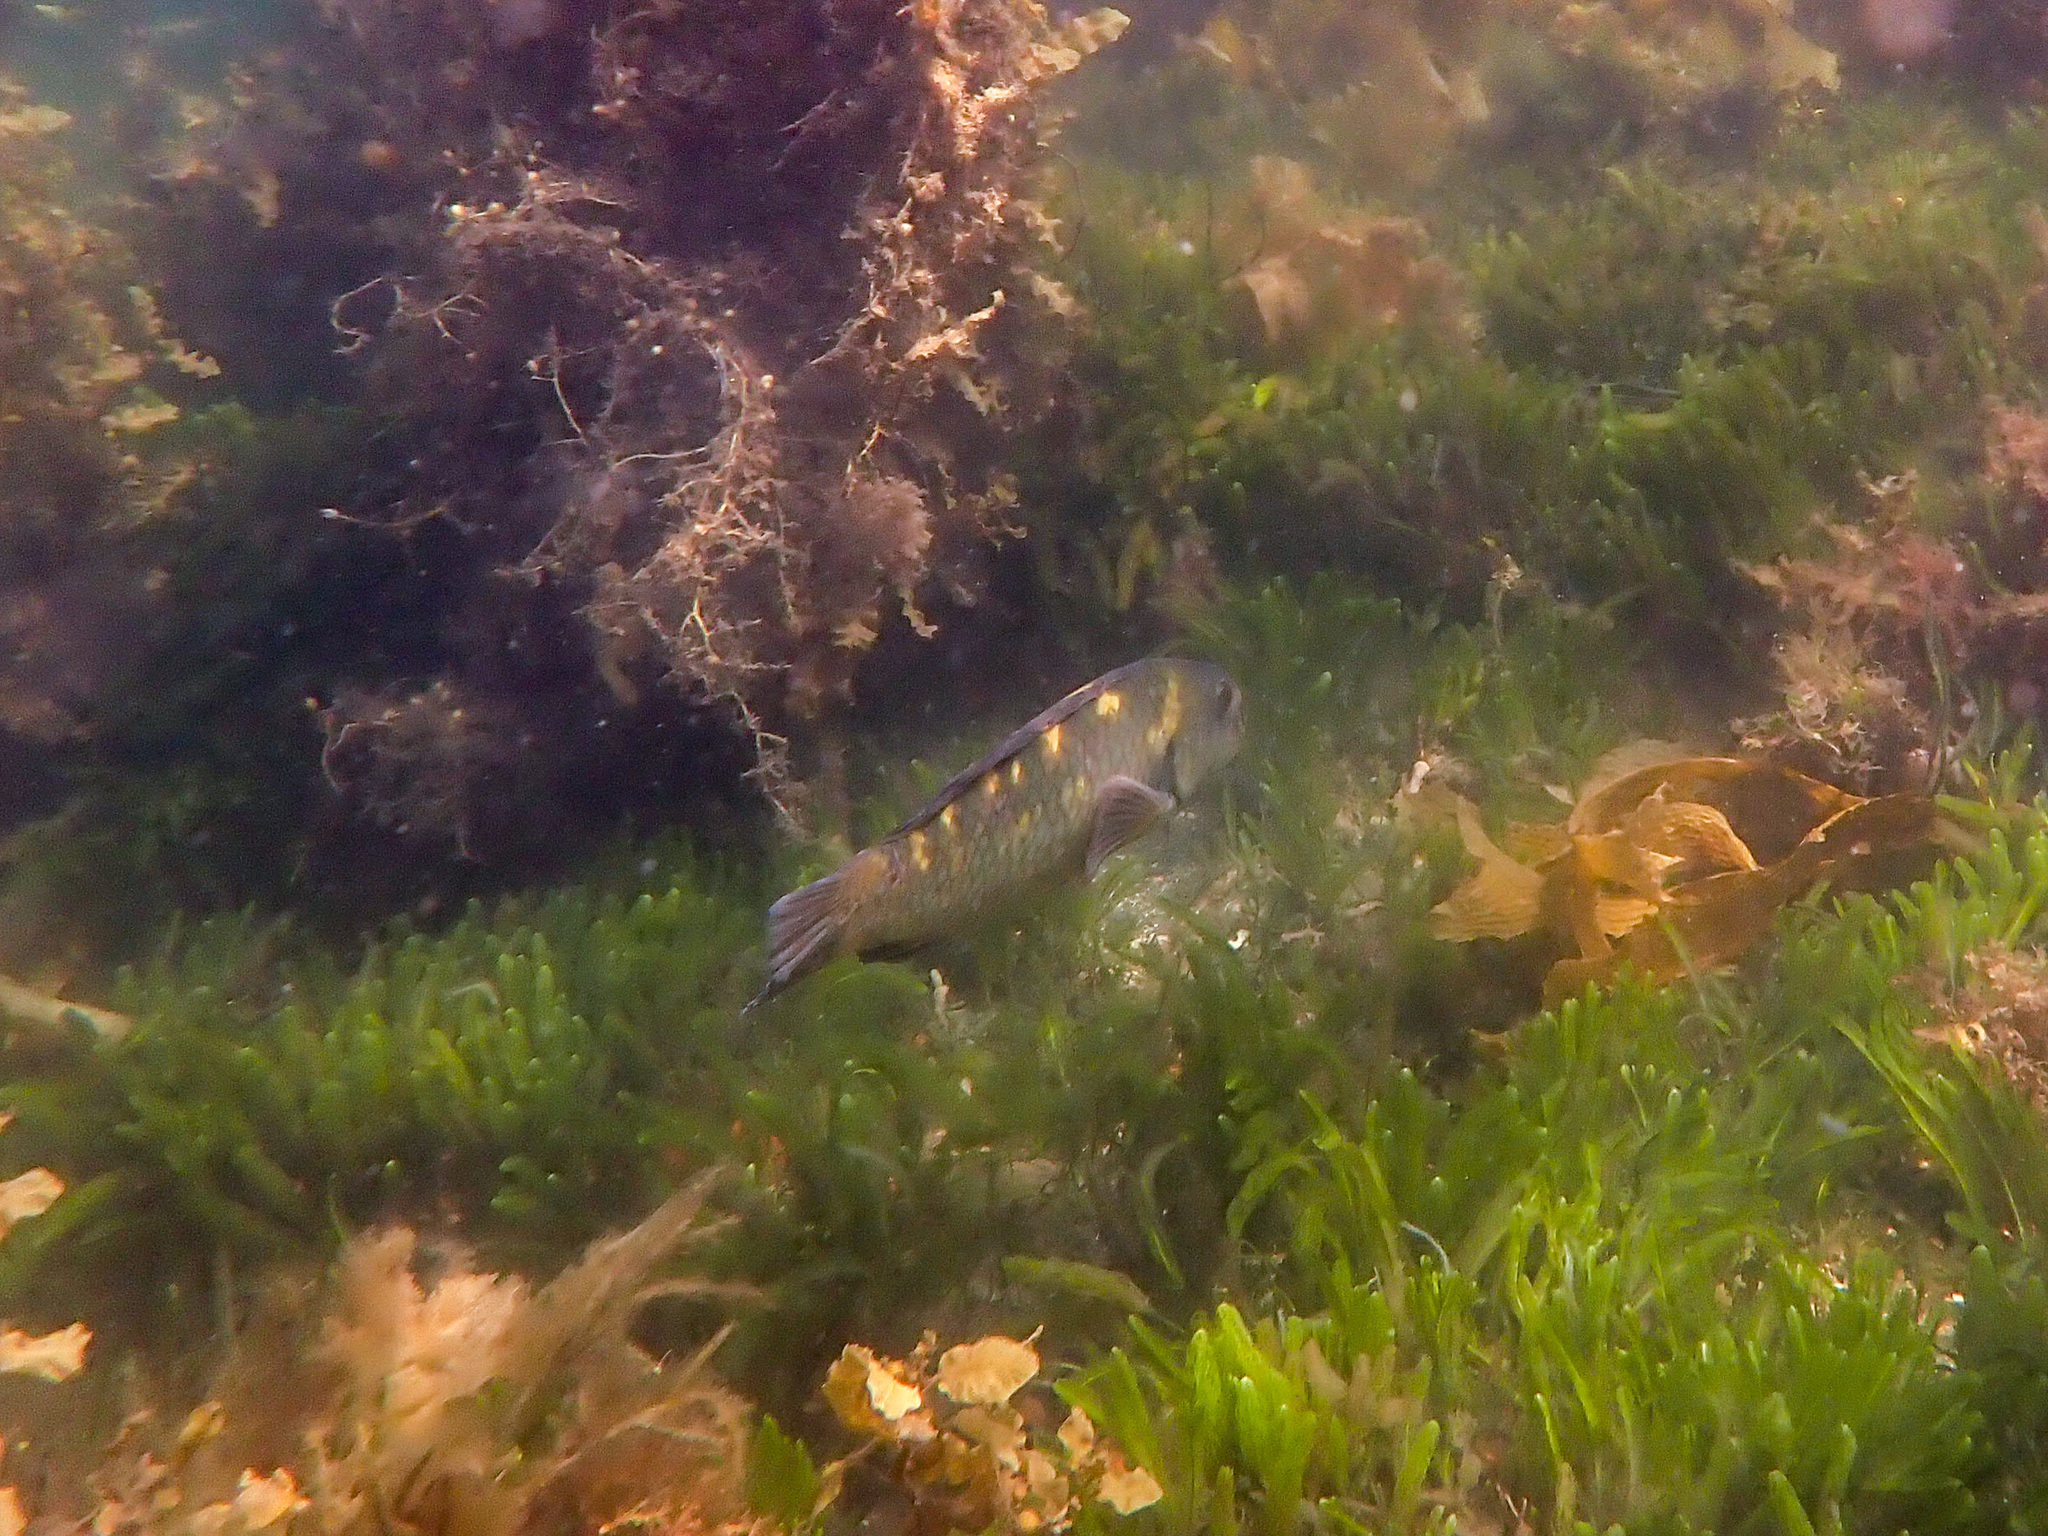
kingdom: Animalia
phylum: Chordata
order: Perciformes
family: Labridae
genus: Notolabrus
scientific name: Notolabrus fucicola
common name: Banded parrotfish
